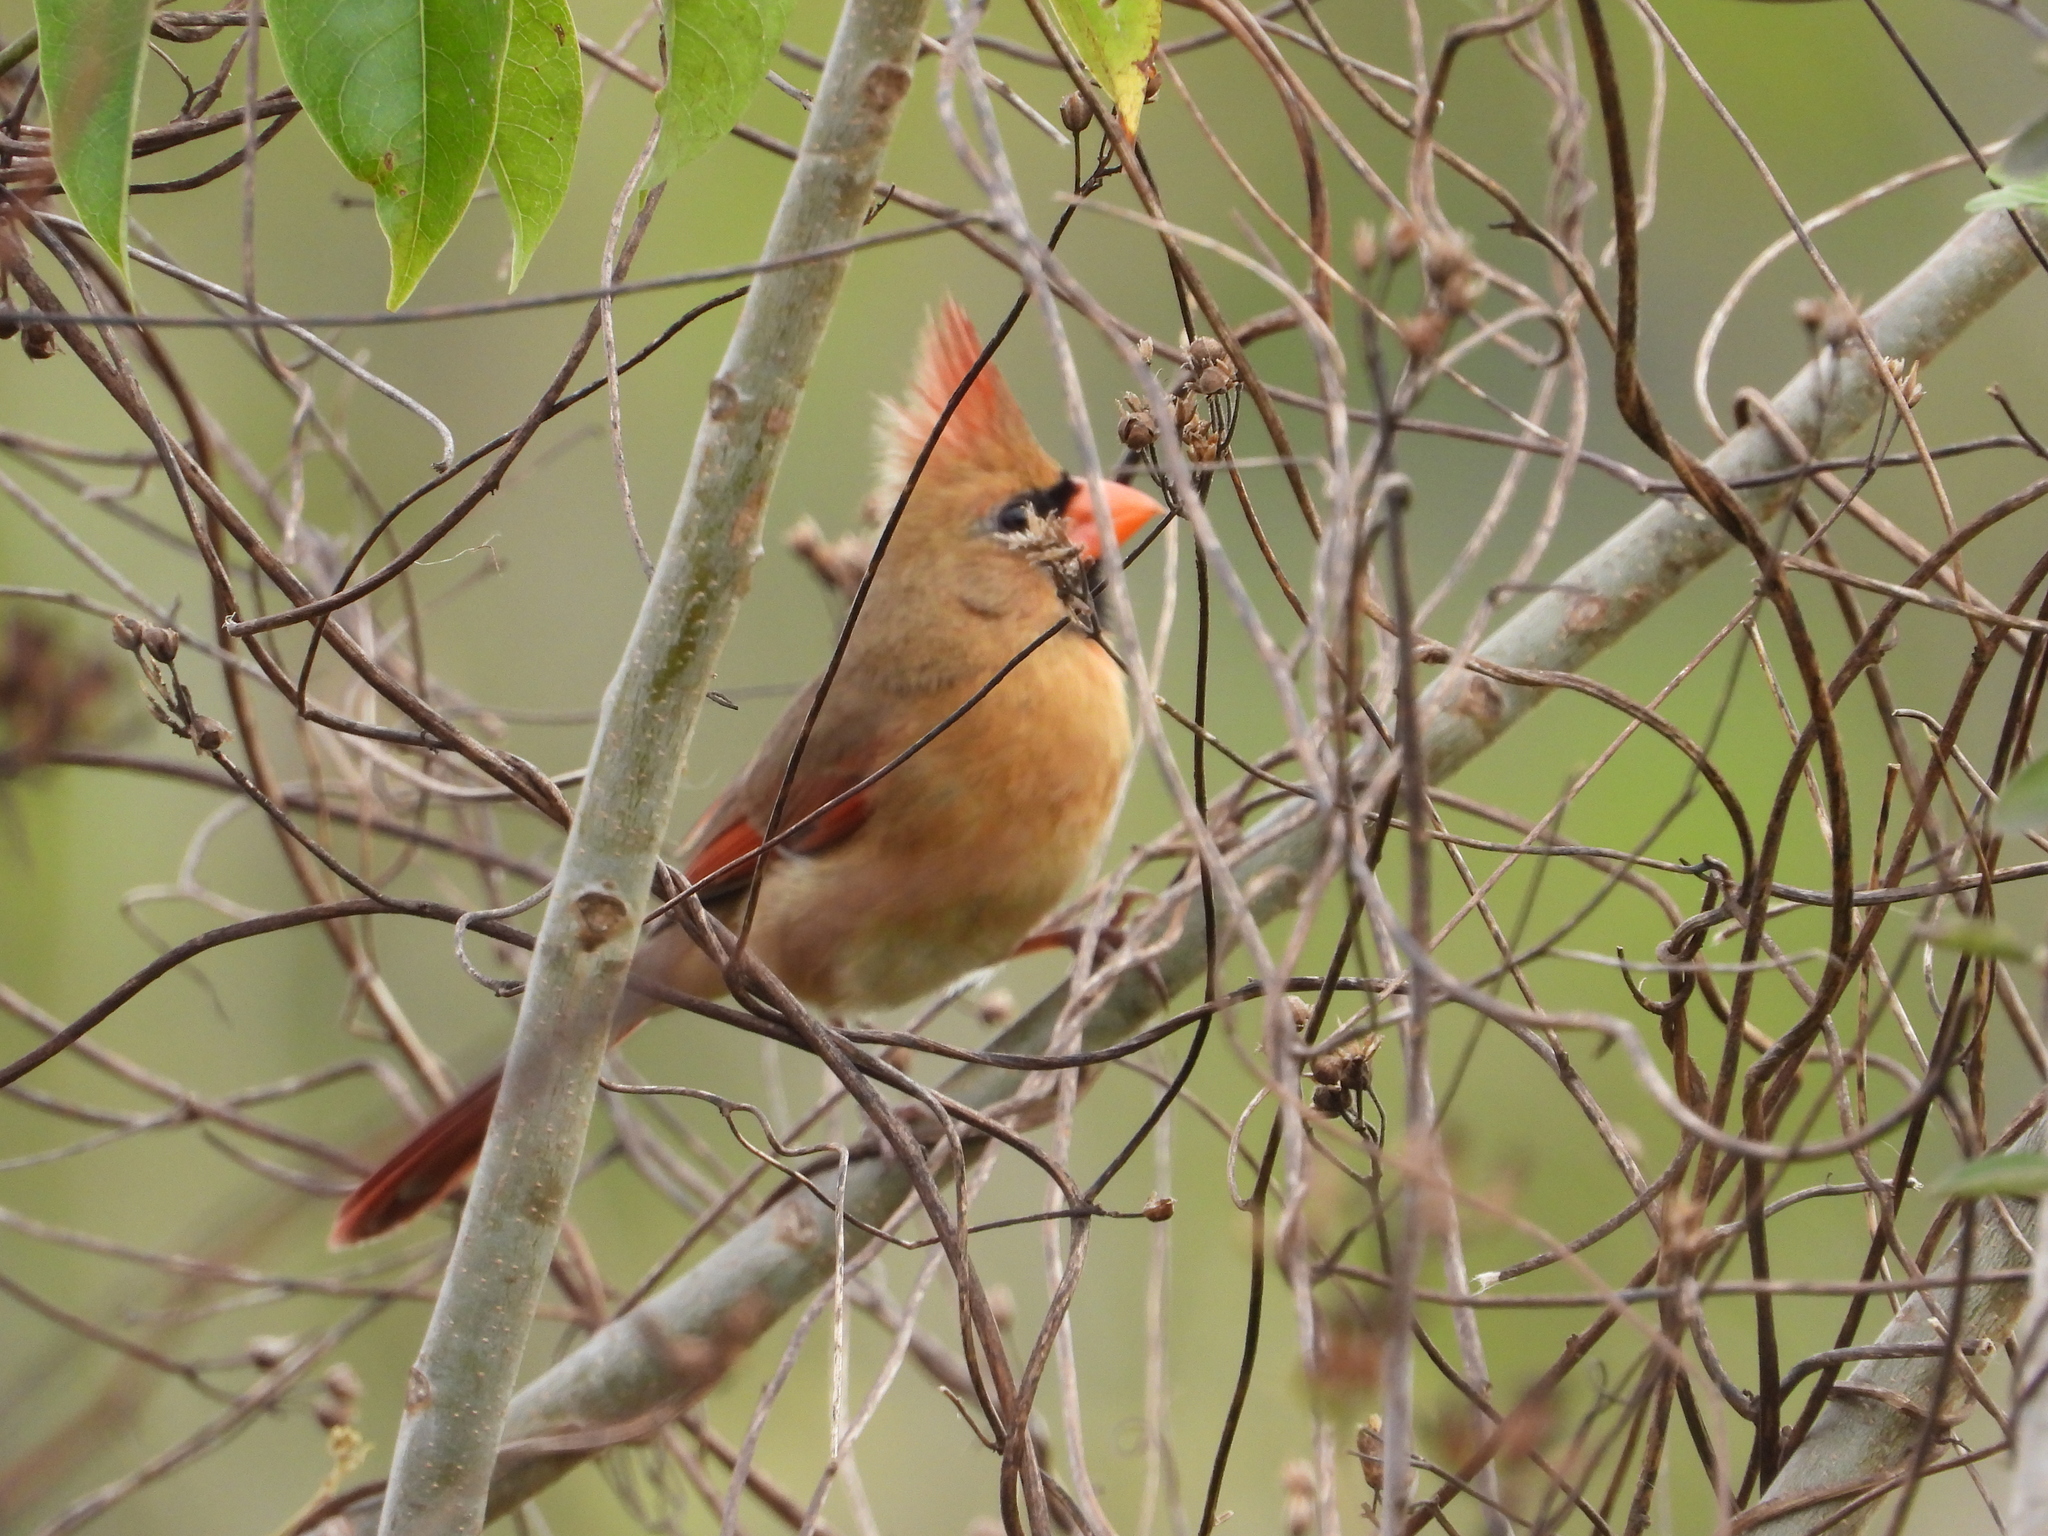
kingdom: Animalia
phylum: Chordata
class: Aves
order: Passeriformes
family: Cardinalidae
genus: Cardinalis
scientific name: Cardinalis cardinalis
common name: Northern cardinal
